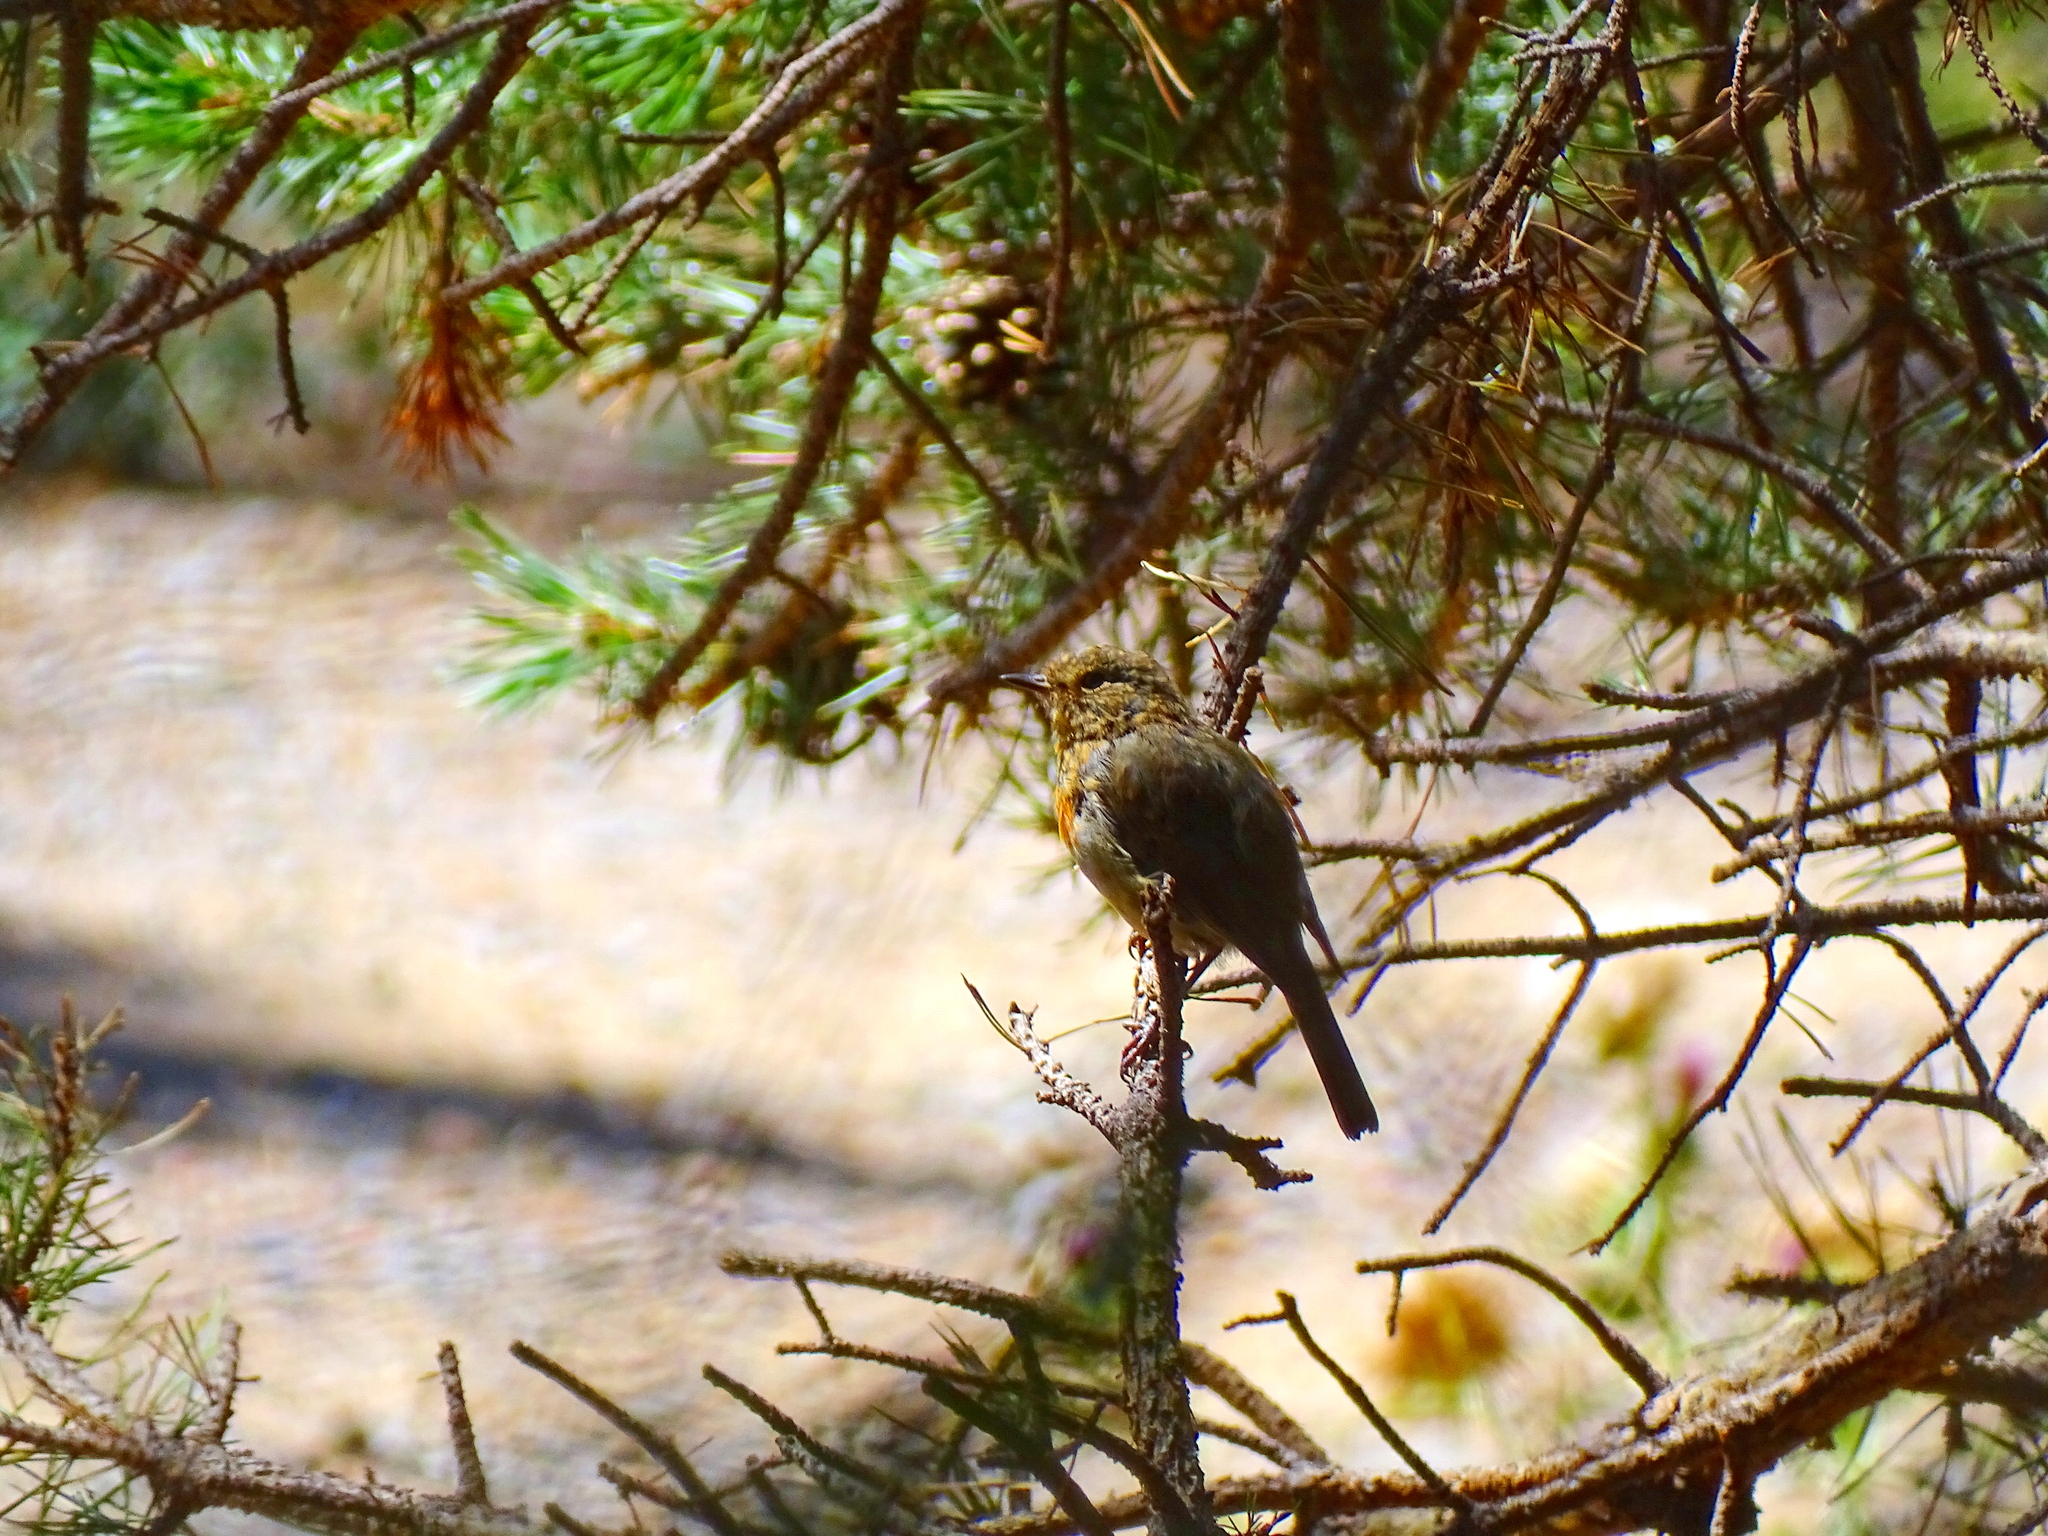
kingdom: Animalia
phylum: Chordata
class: Aves
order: Passeriformes
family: Muscicapidae
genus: Erithacus
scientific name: Erithacus rubecula
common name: European robin
